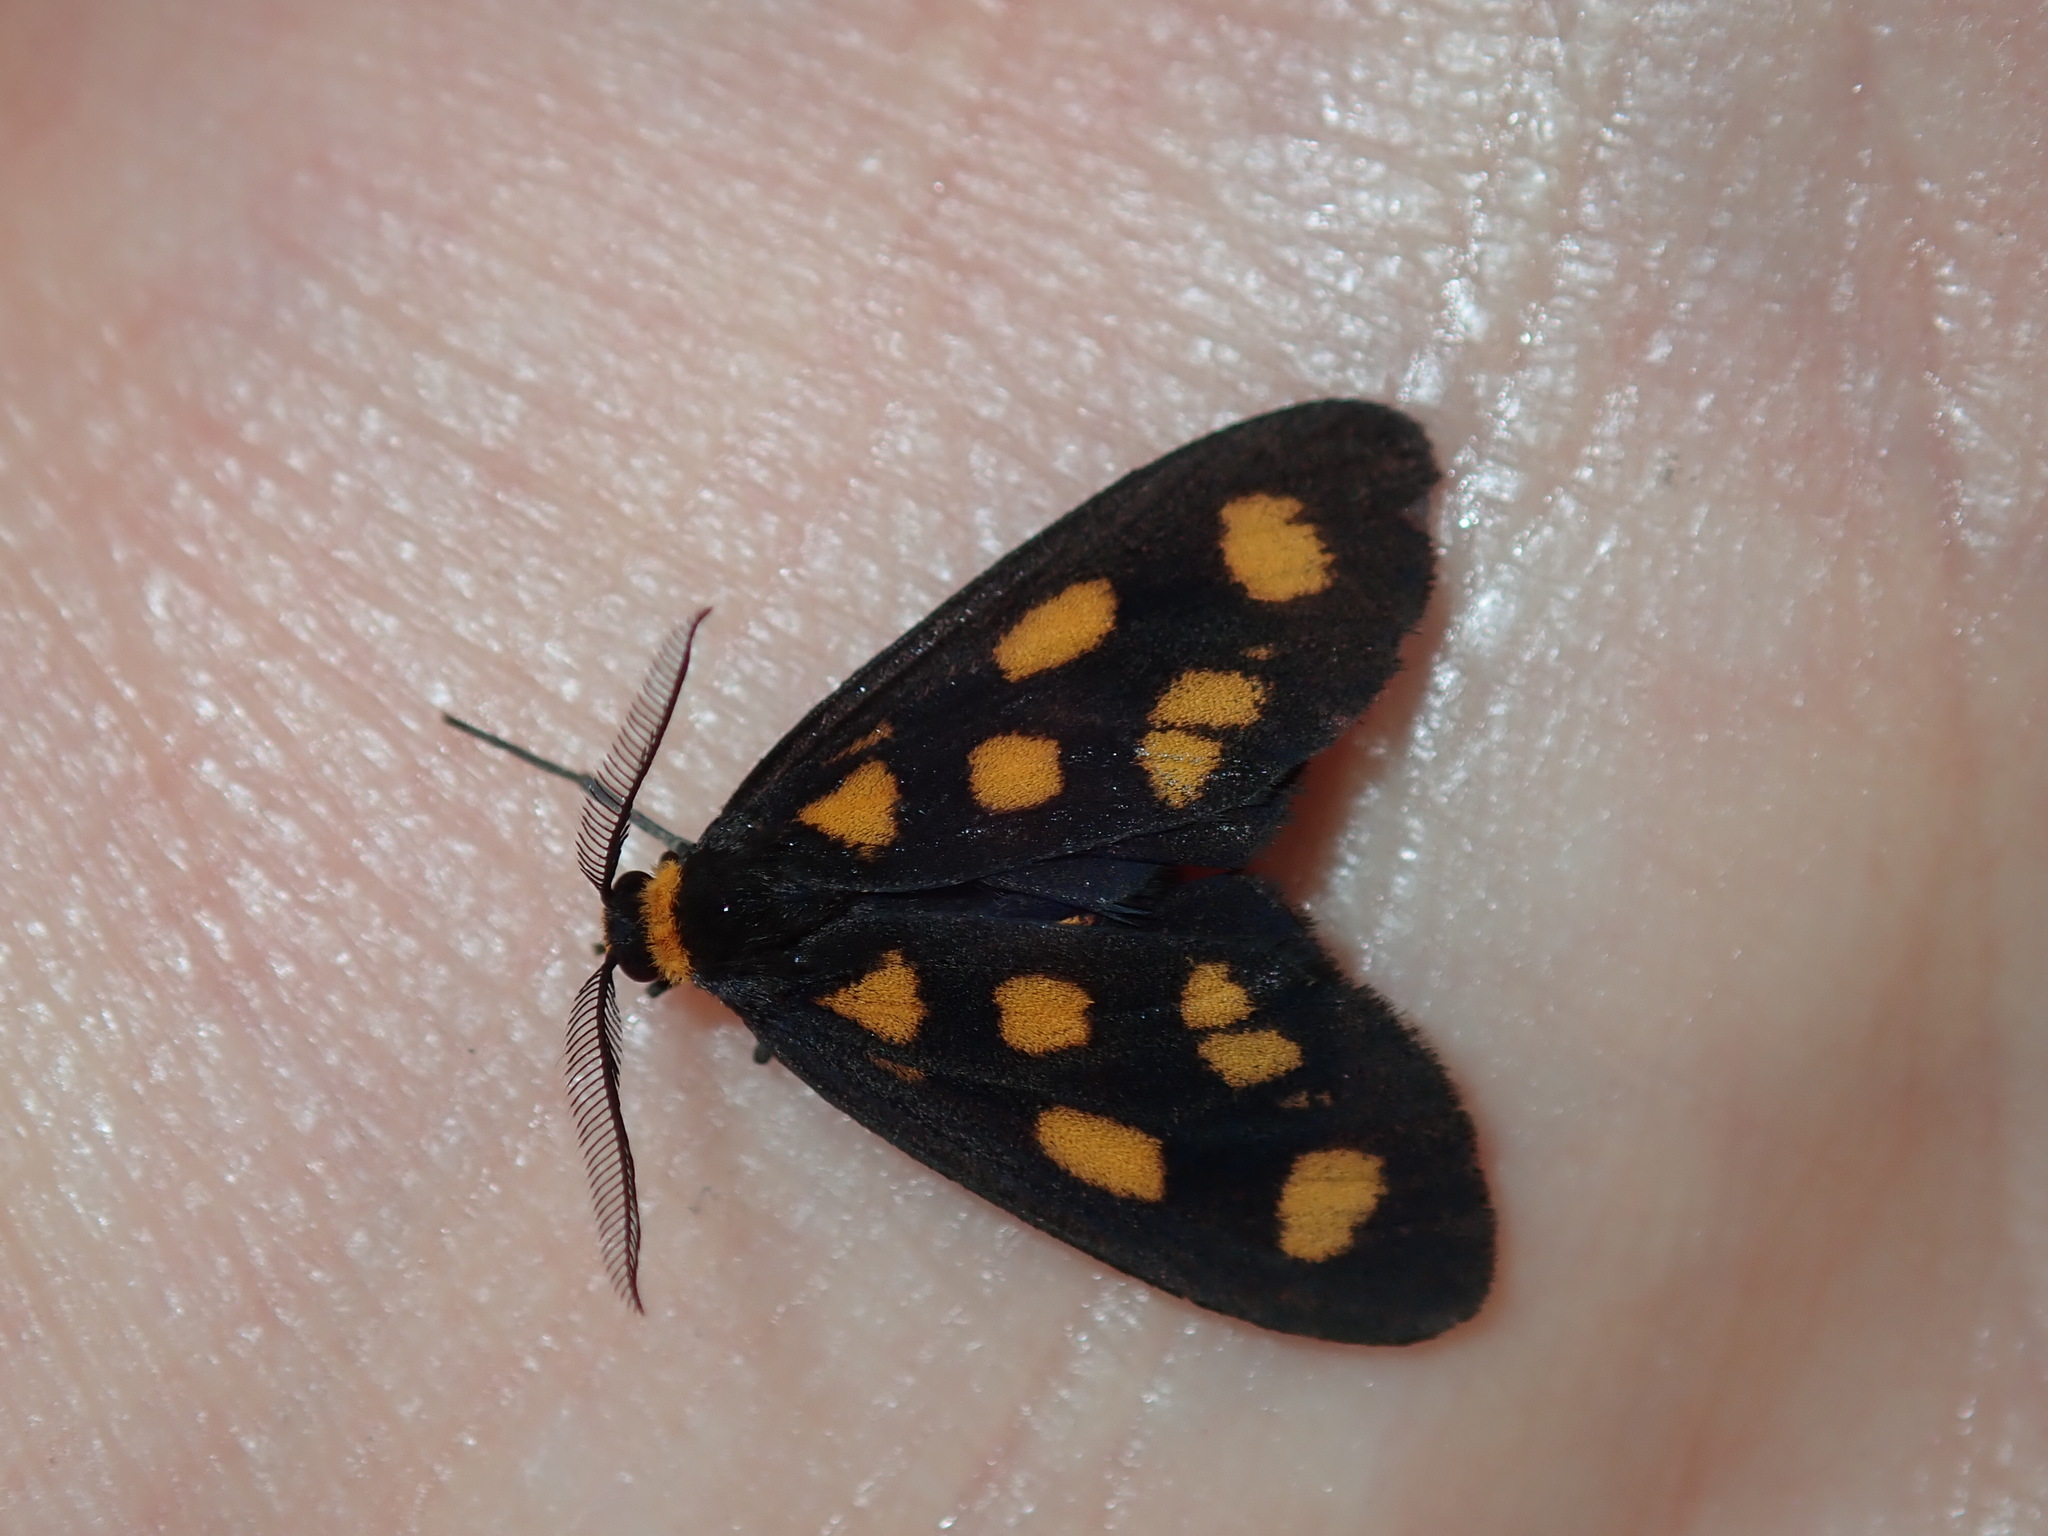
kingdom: Animalia
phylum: Arthropoda
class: Insecta
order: Lepidoptera
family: Erebidae
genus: Asura
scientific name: Asura cervicalis
